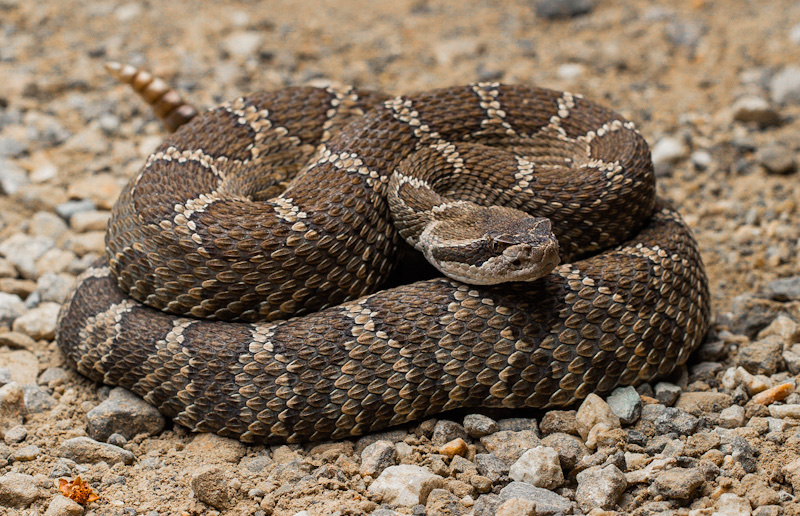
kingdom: Animalia
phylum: Chordata
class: Squamata
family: Viperidae
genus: Crotalus
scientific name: Crotalus oreganus
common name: Abyssus
